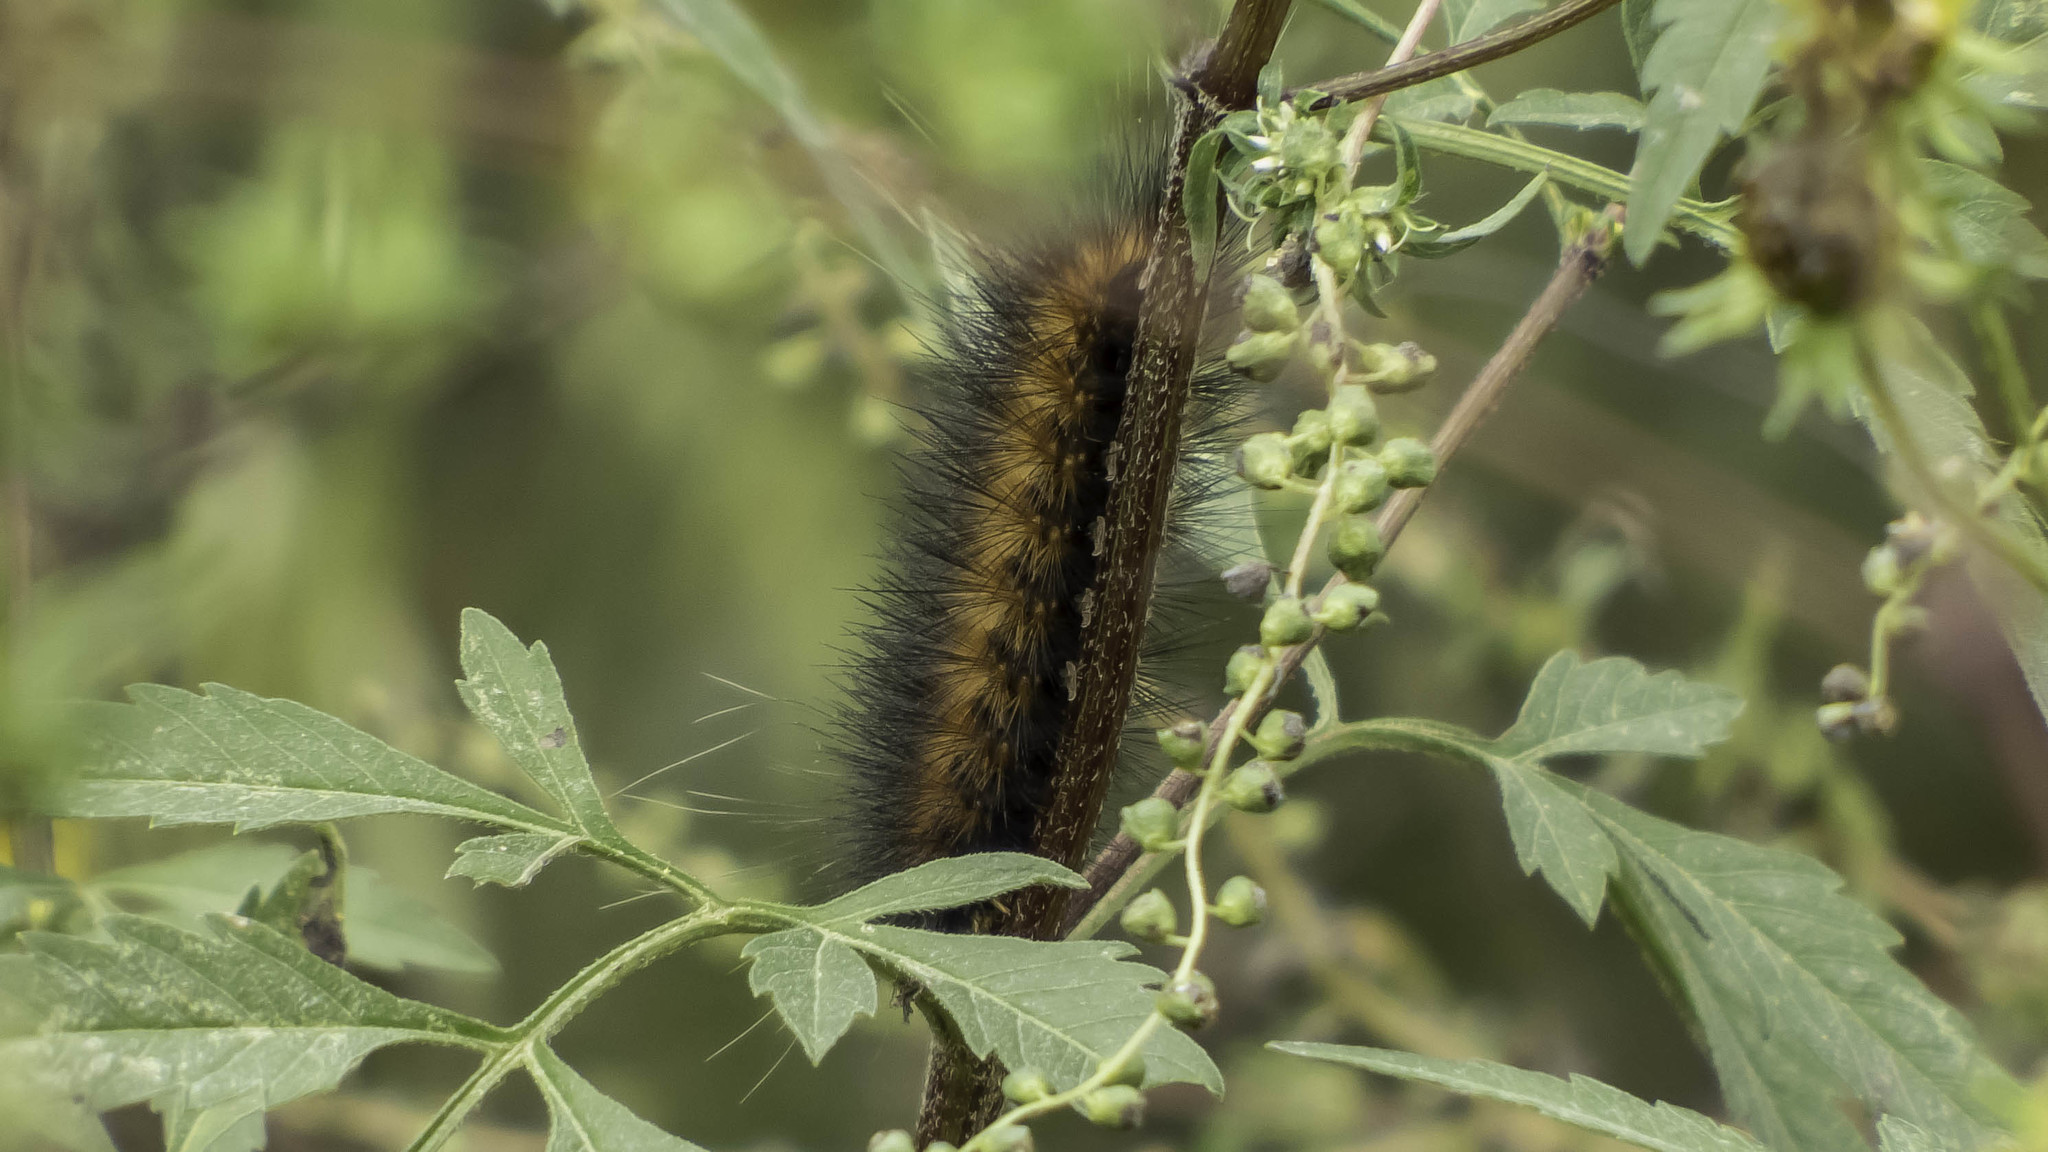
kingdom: Animalia
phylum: Arthropoda
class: Insecta
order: Lepidoptera
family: Erebidae
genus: Estigmene
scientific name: Estigmene acrea
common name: Salt marsh moth
